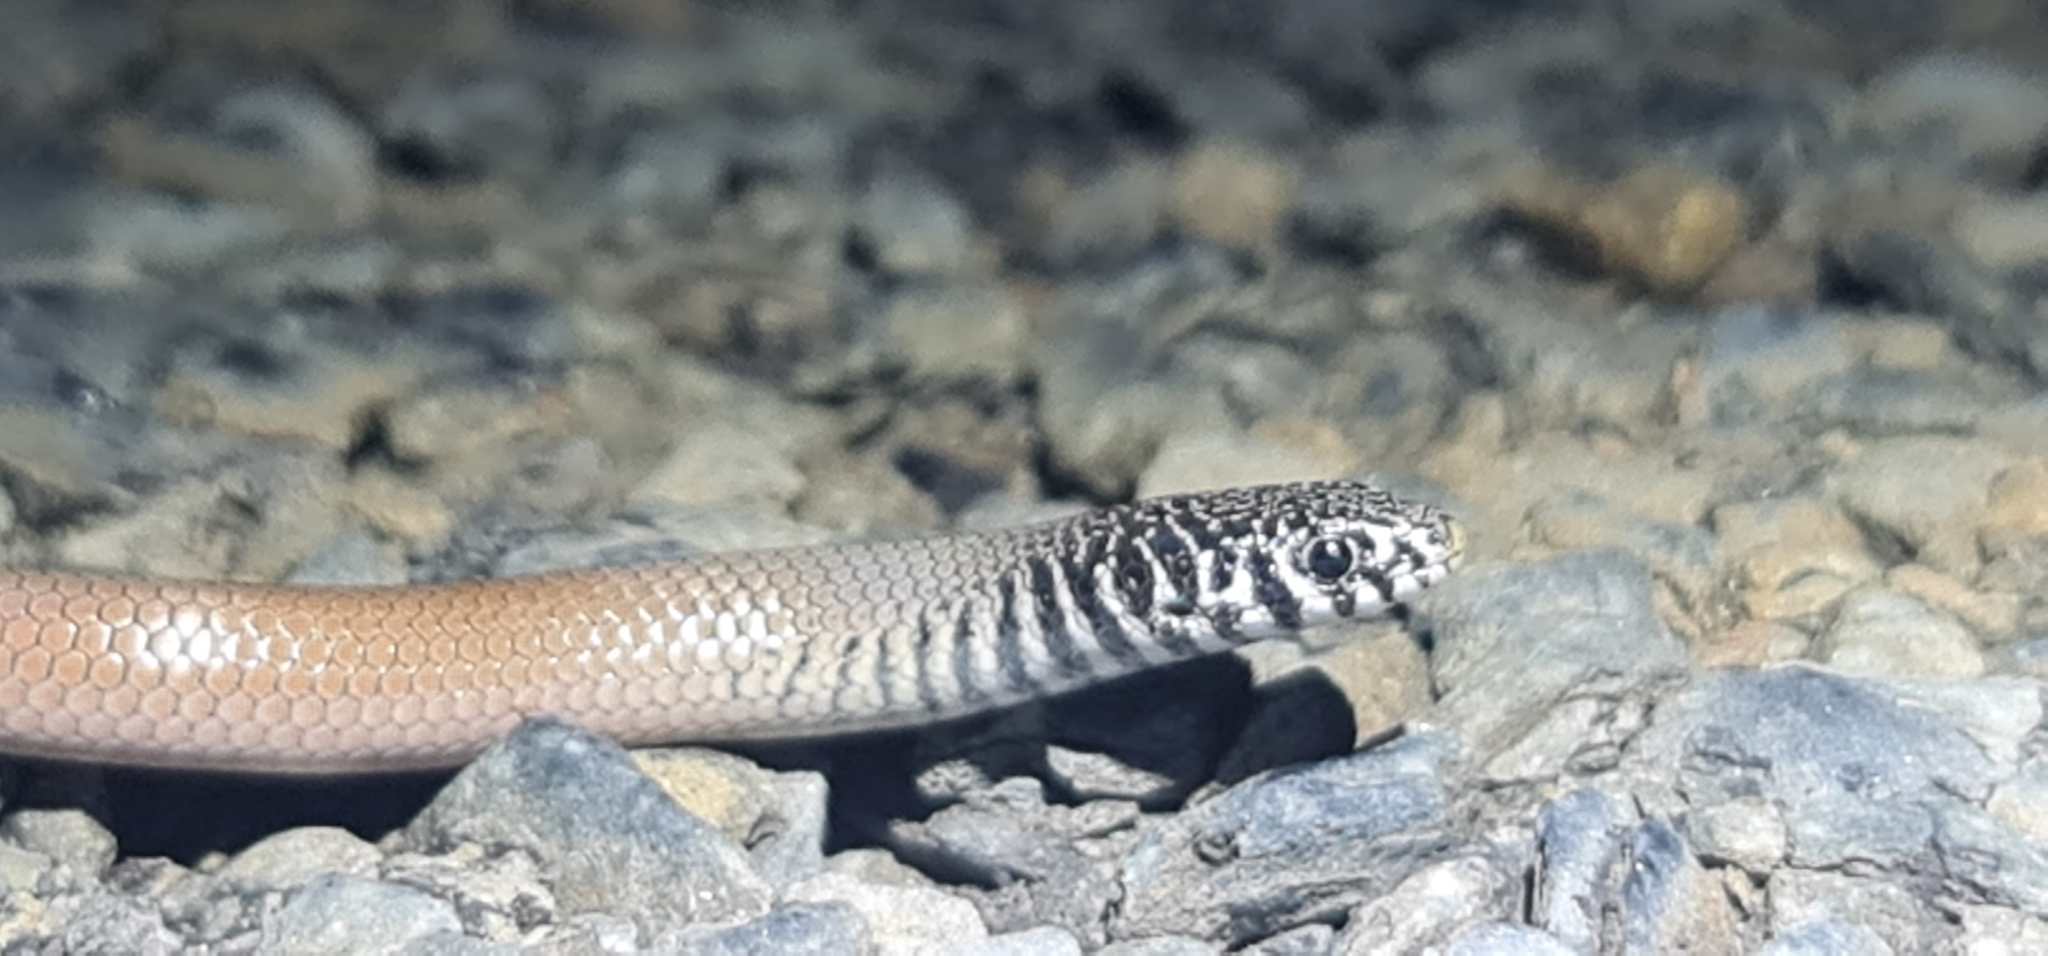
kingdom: Animalia
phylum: Chordata
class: Squamata
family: Pygopodidae
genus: Delma
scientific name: Delma australis
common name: Marble-faced delma
